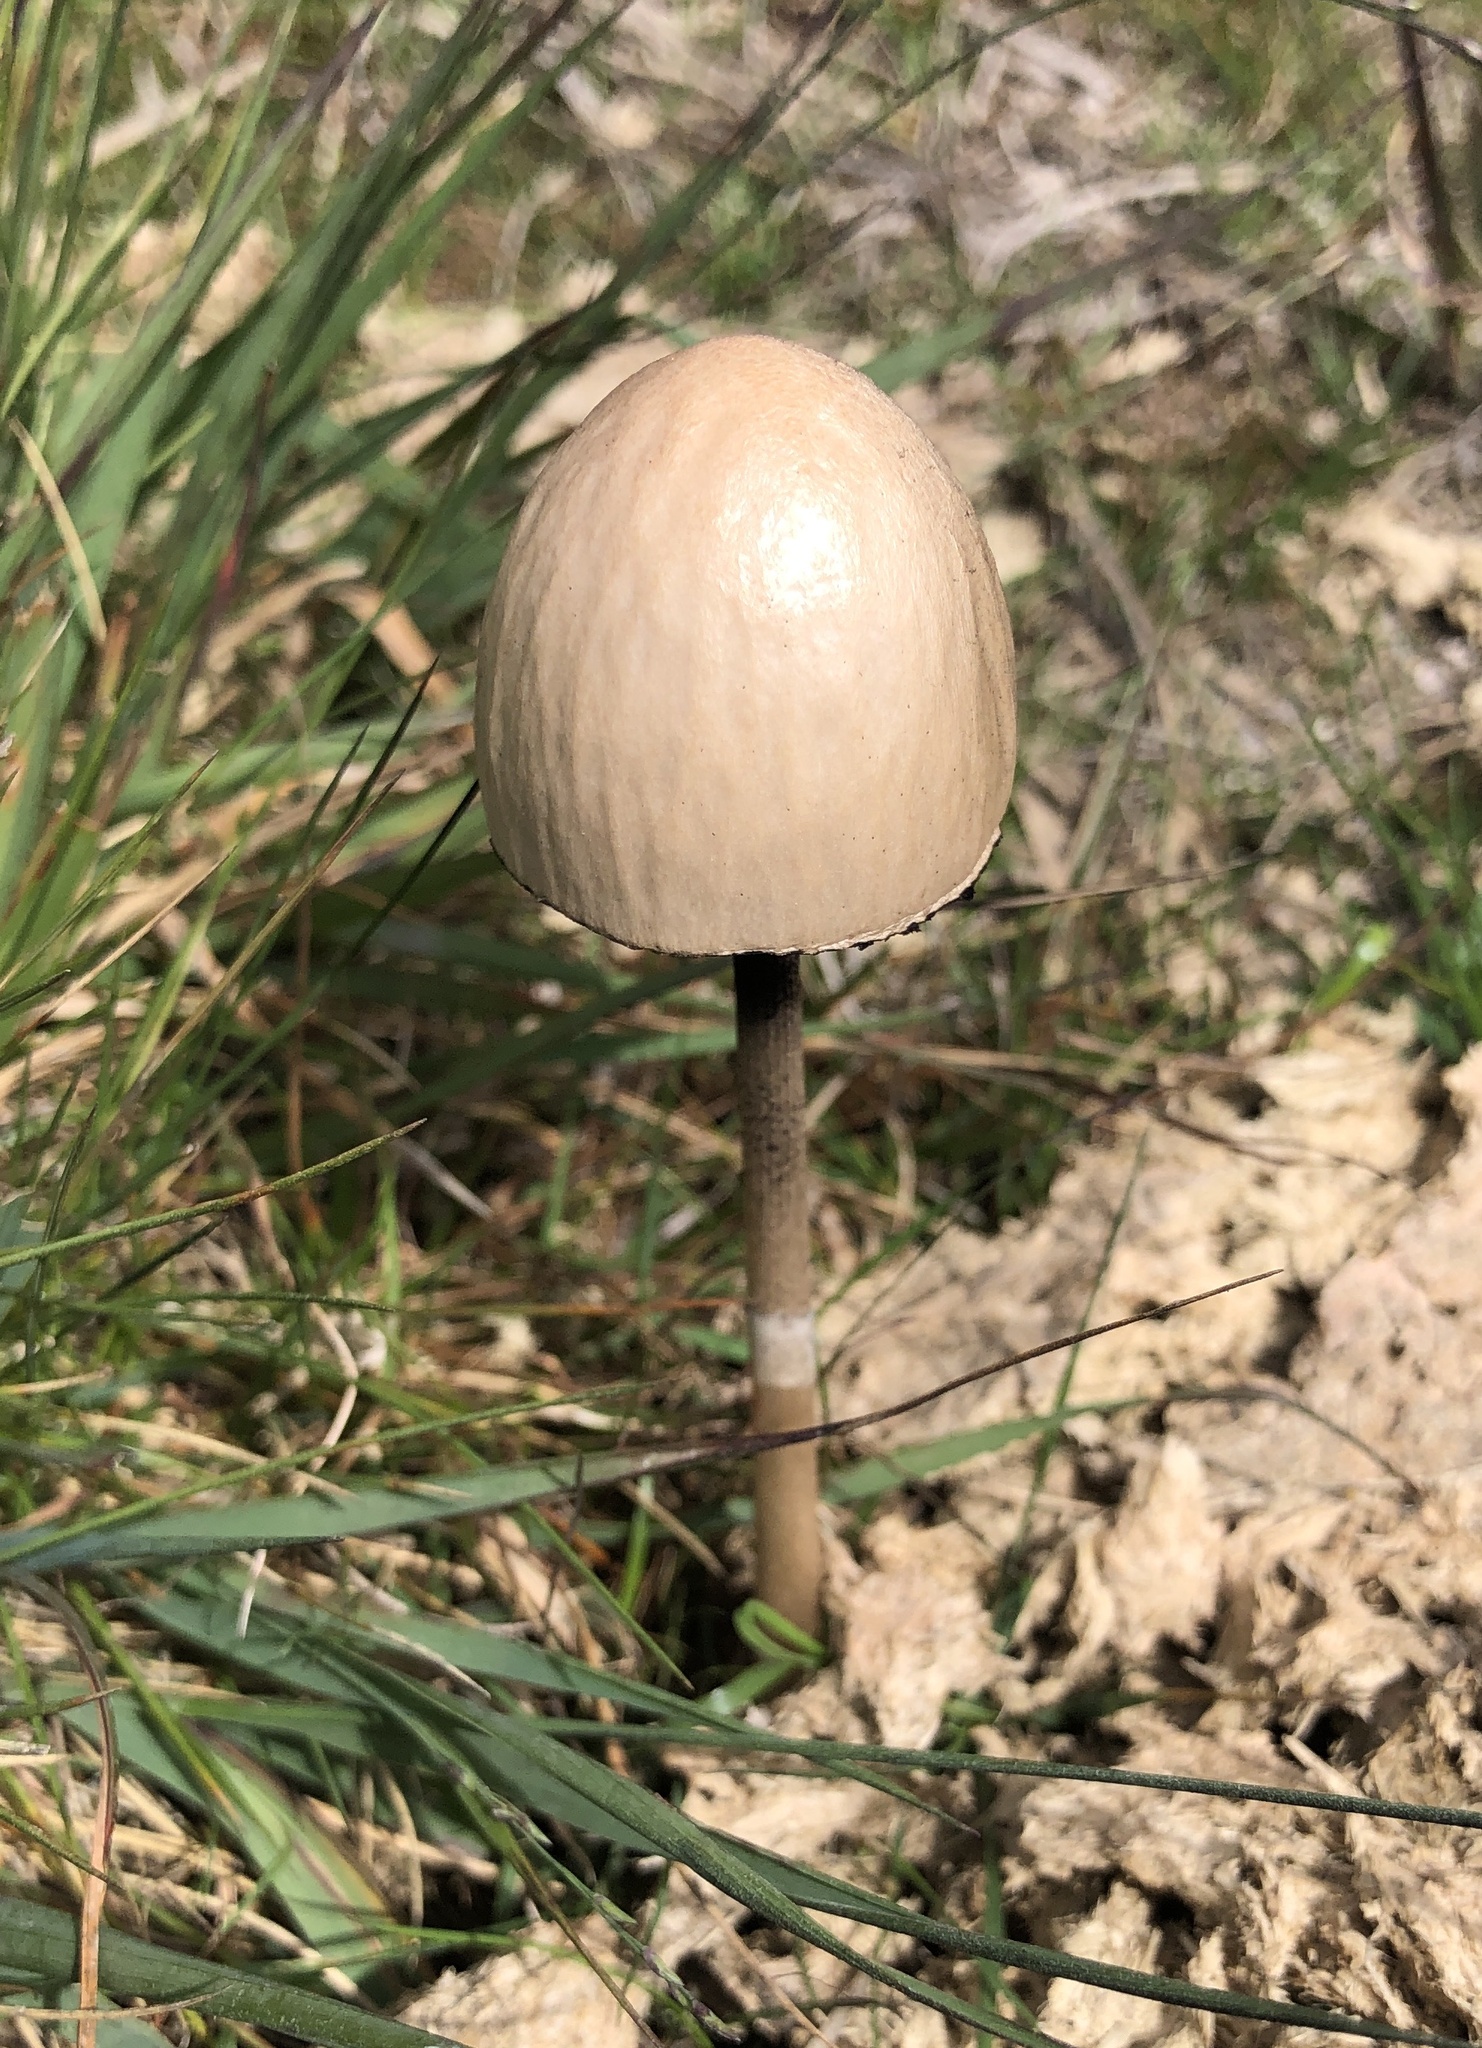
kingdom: Fungi
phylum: Basidiomycota
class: Agaricomycetes
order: Agaricales
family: Bolbitiaceae
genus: Panaeolus
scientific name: Panaeolus semiovatus
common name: Shiny mottlegill
